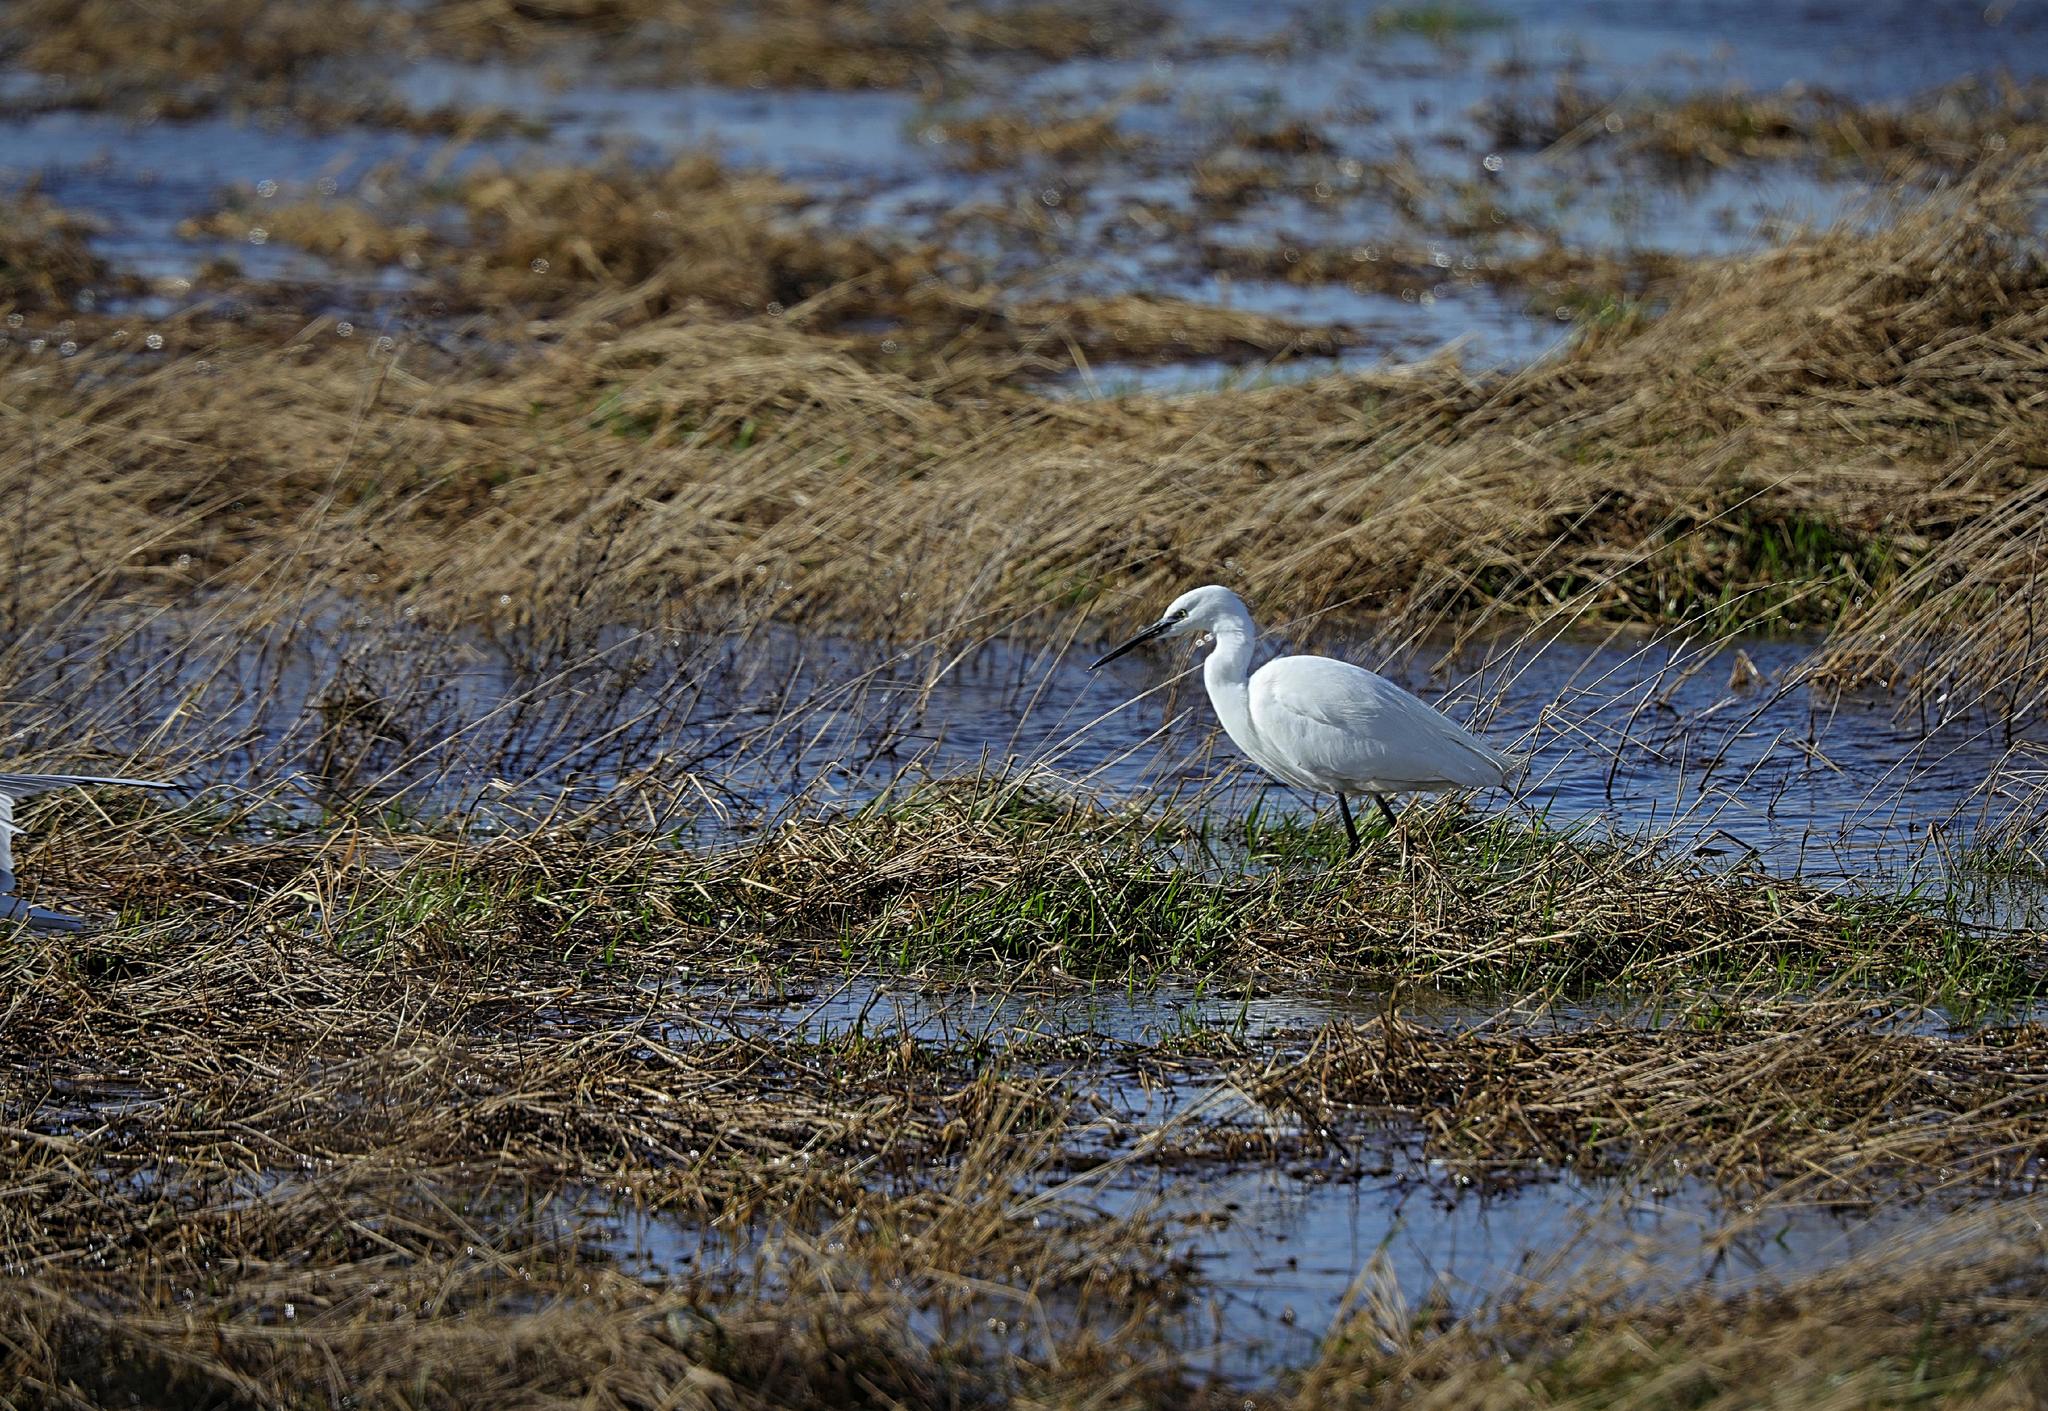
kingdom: Animalia
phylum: Chordata
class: Aves
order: Pelecaniformes
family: Ardeidae
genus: Egretta
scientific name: Egretta garzetta
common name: Little egret
